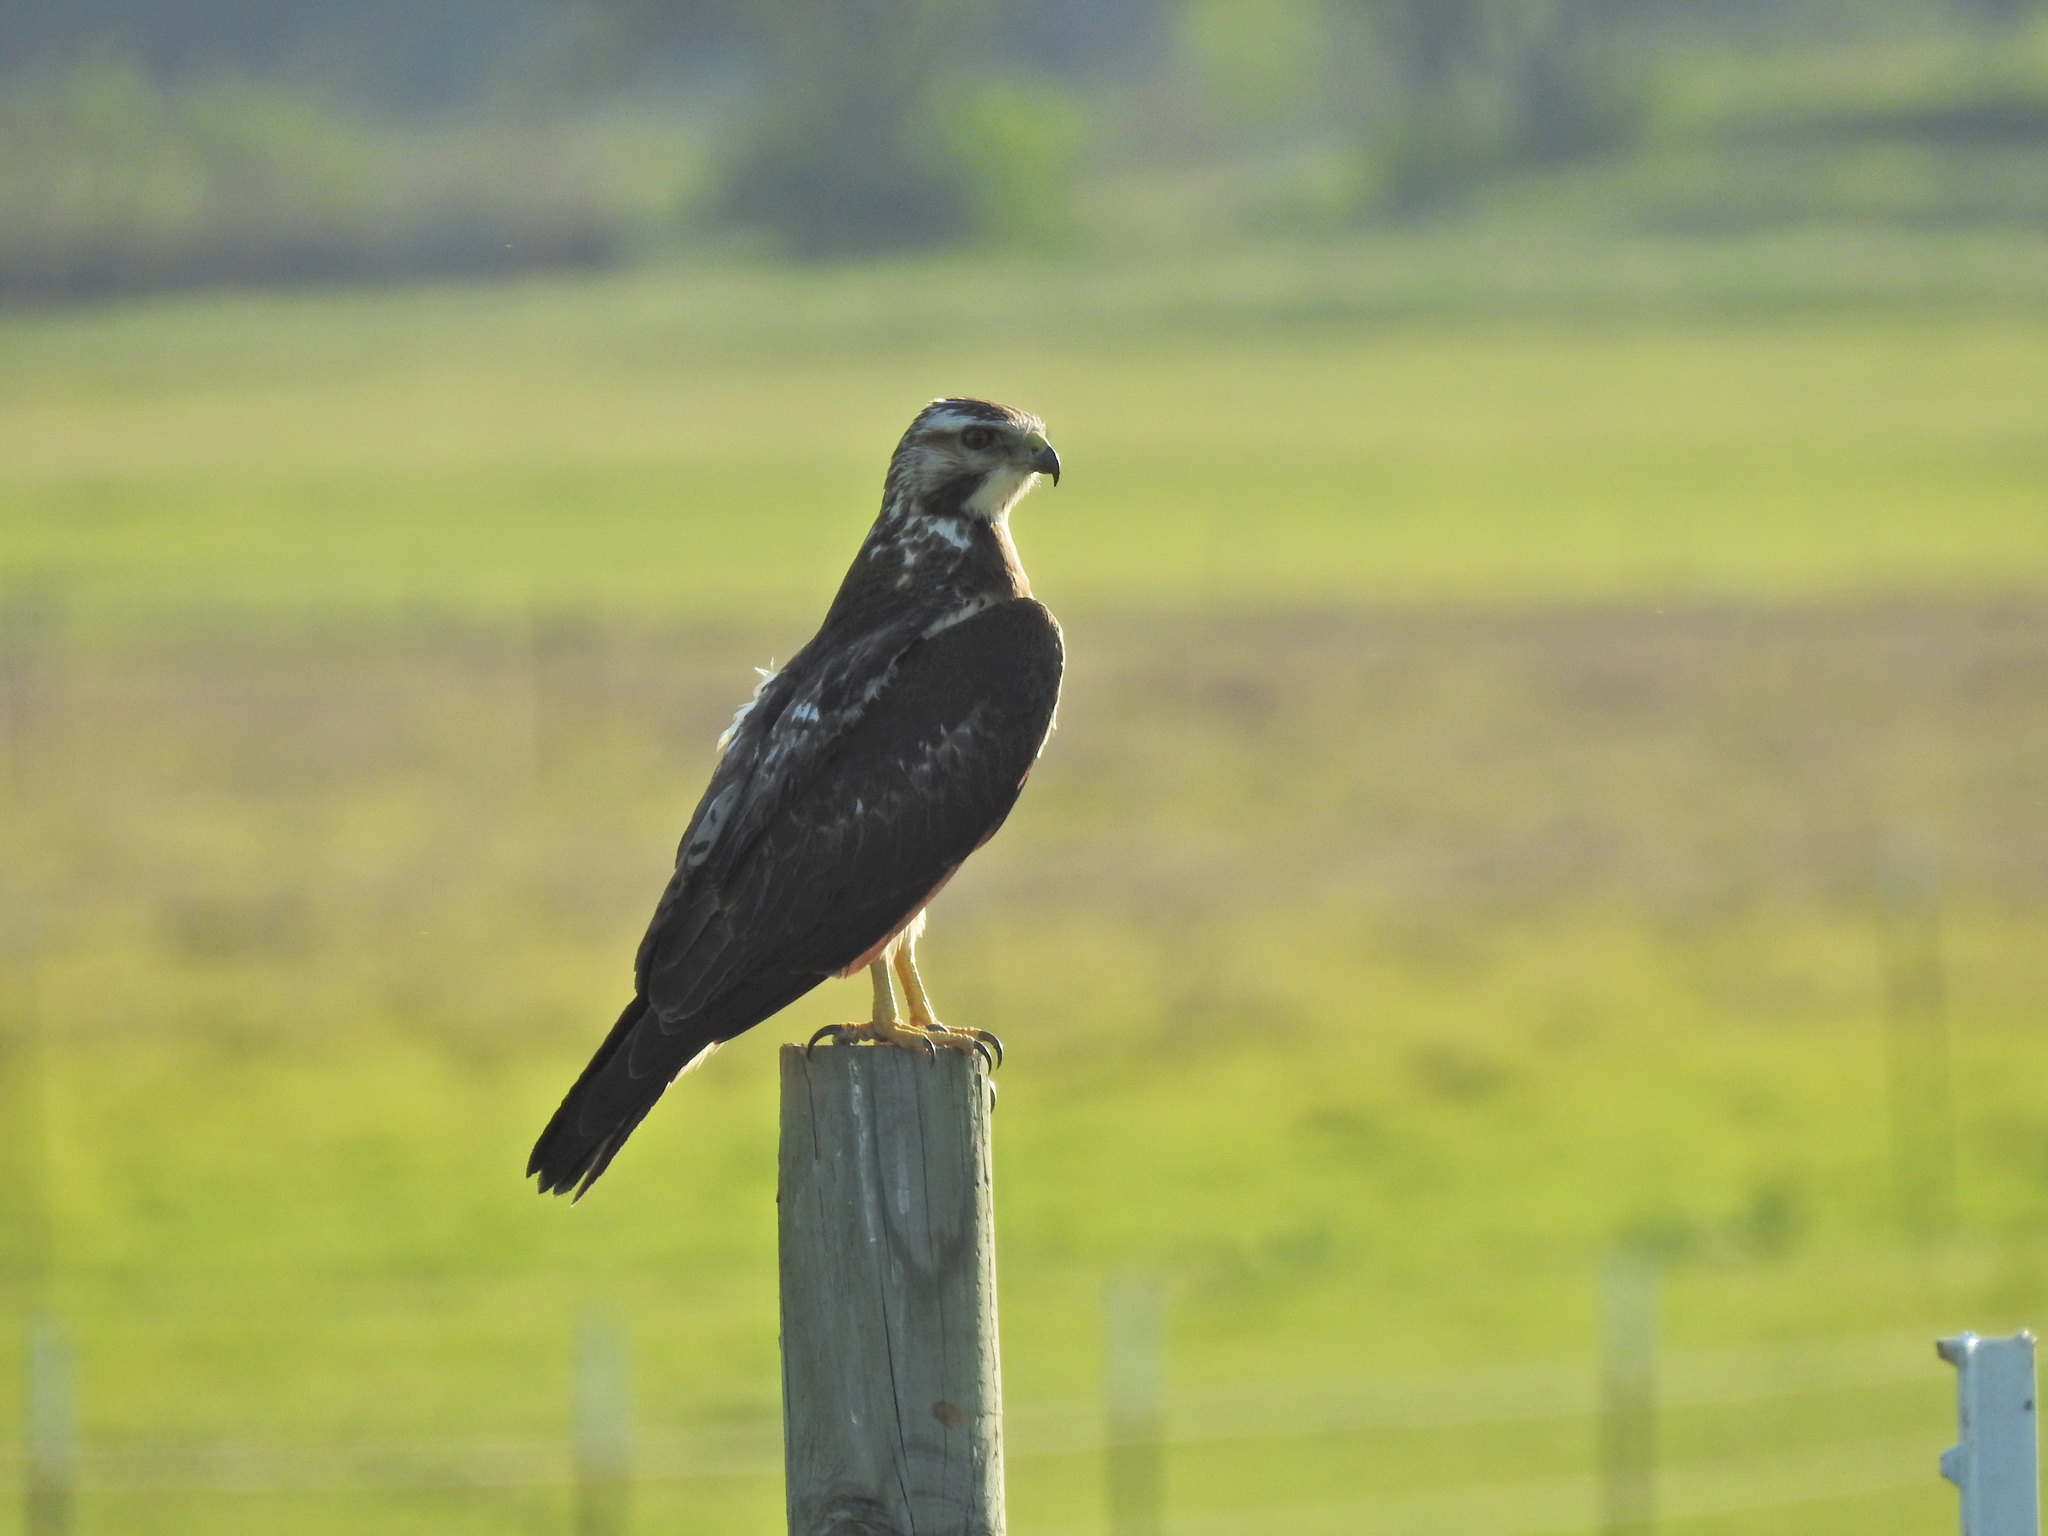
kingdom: Animalia
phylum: Chordata
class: Aves
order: Accipitriformes
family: Accipitridae
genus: Buteo
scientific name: Buteo swainsoni
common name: Swainson's hawk
